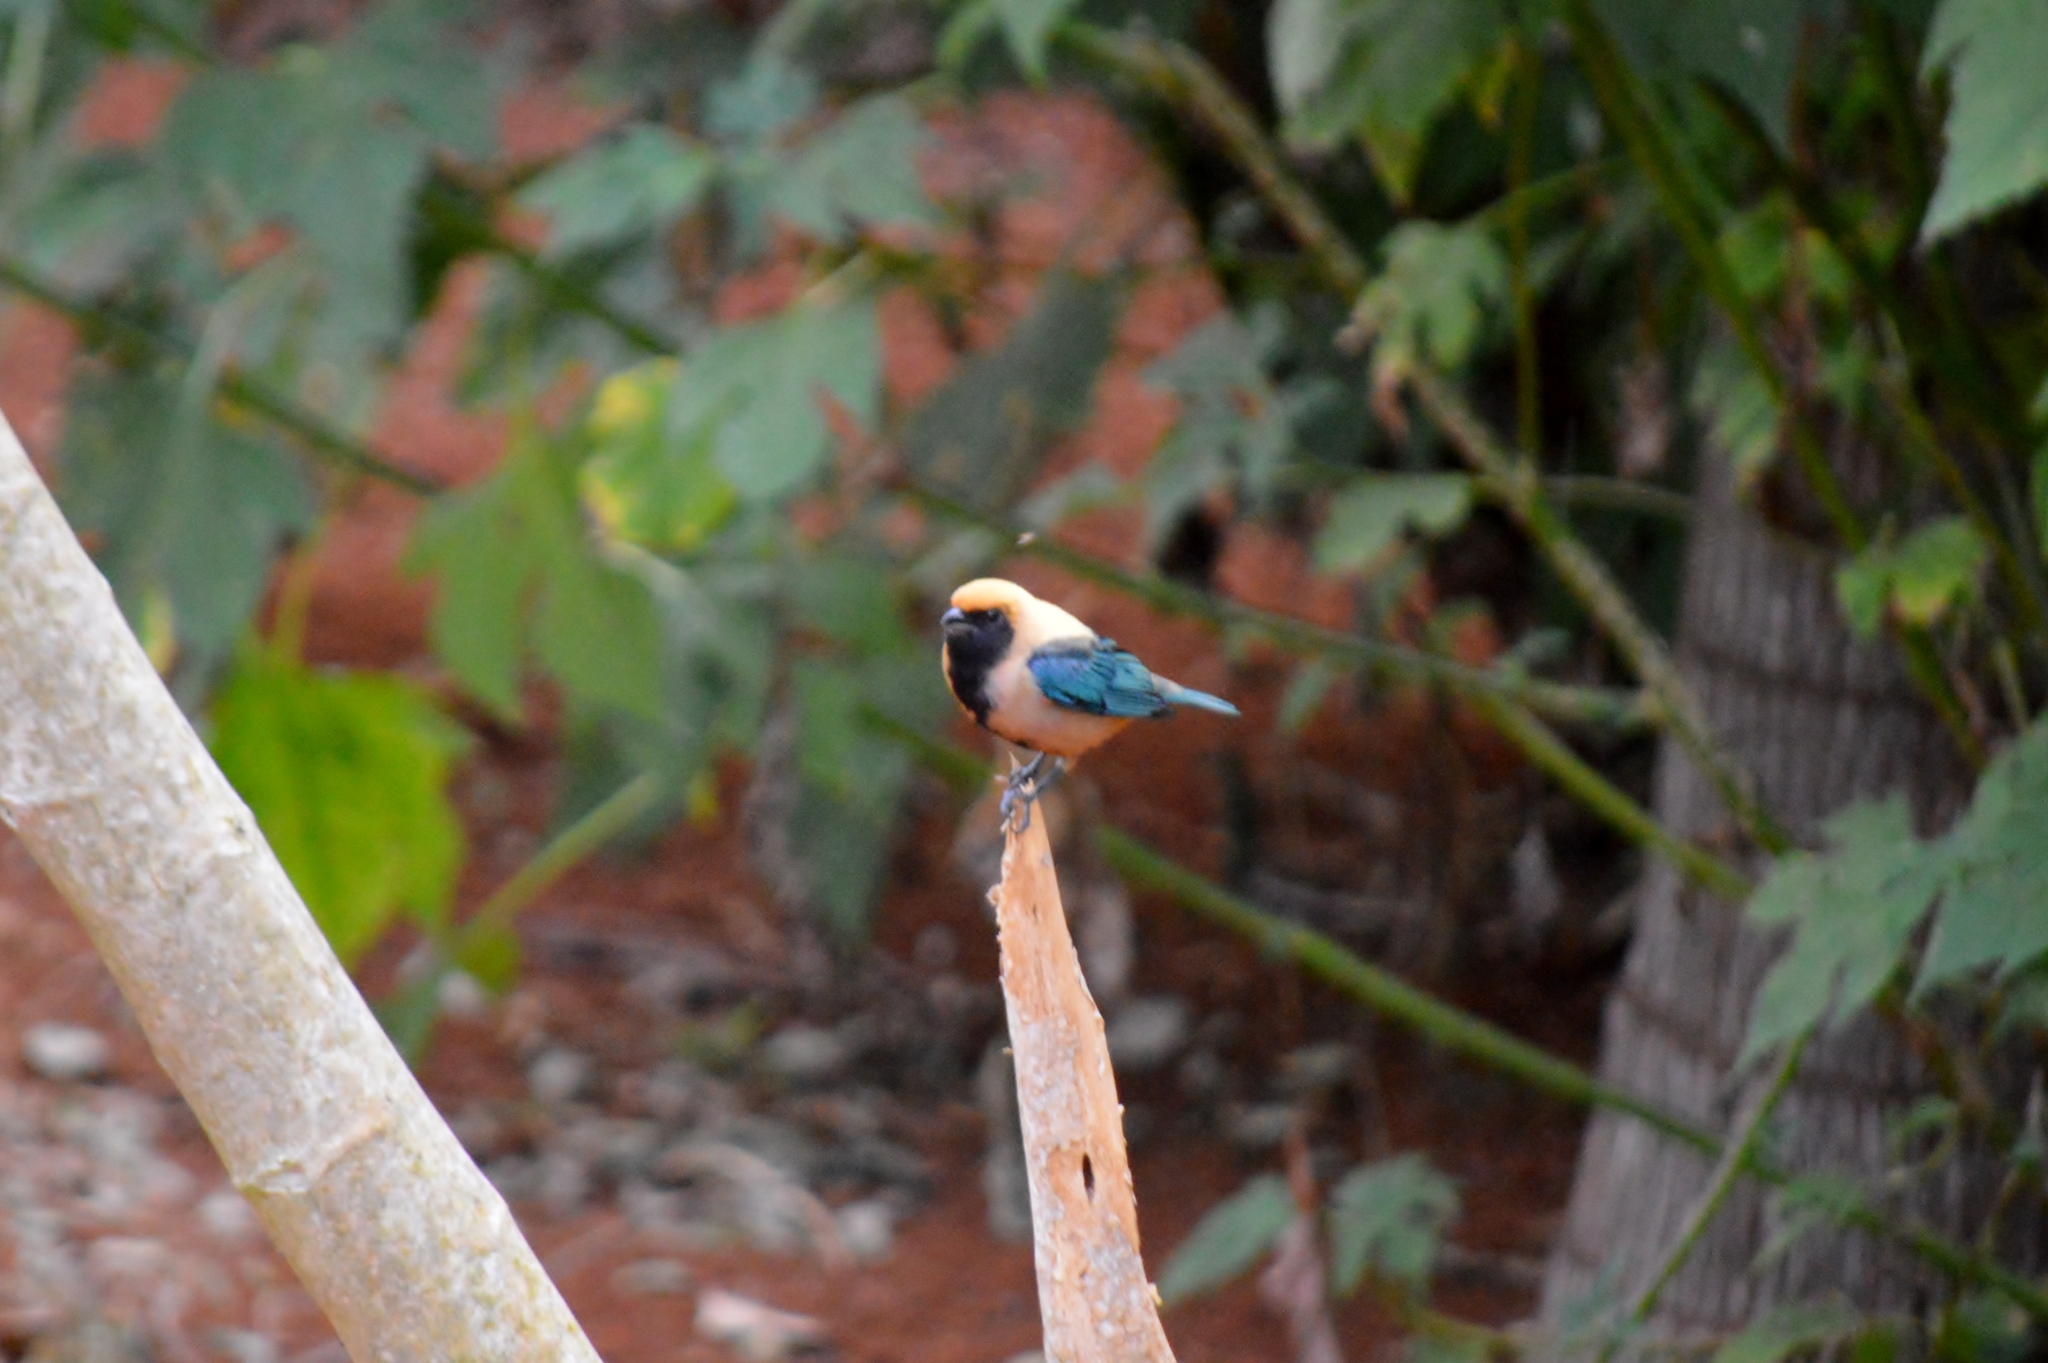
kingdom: Animalia
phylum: Chordata
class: Aves
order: Passeriformes
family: Thraupidae
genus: Stilpnia
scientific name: Stilpnia cayana
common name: Burnished-buff tanager
